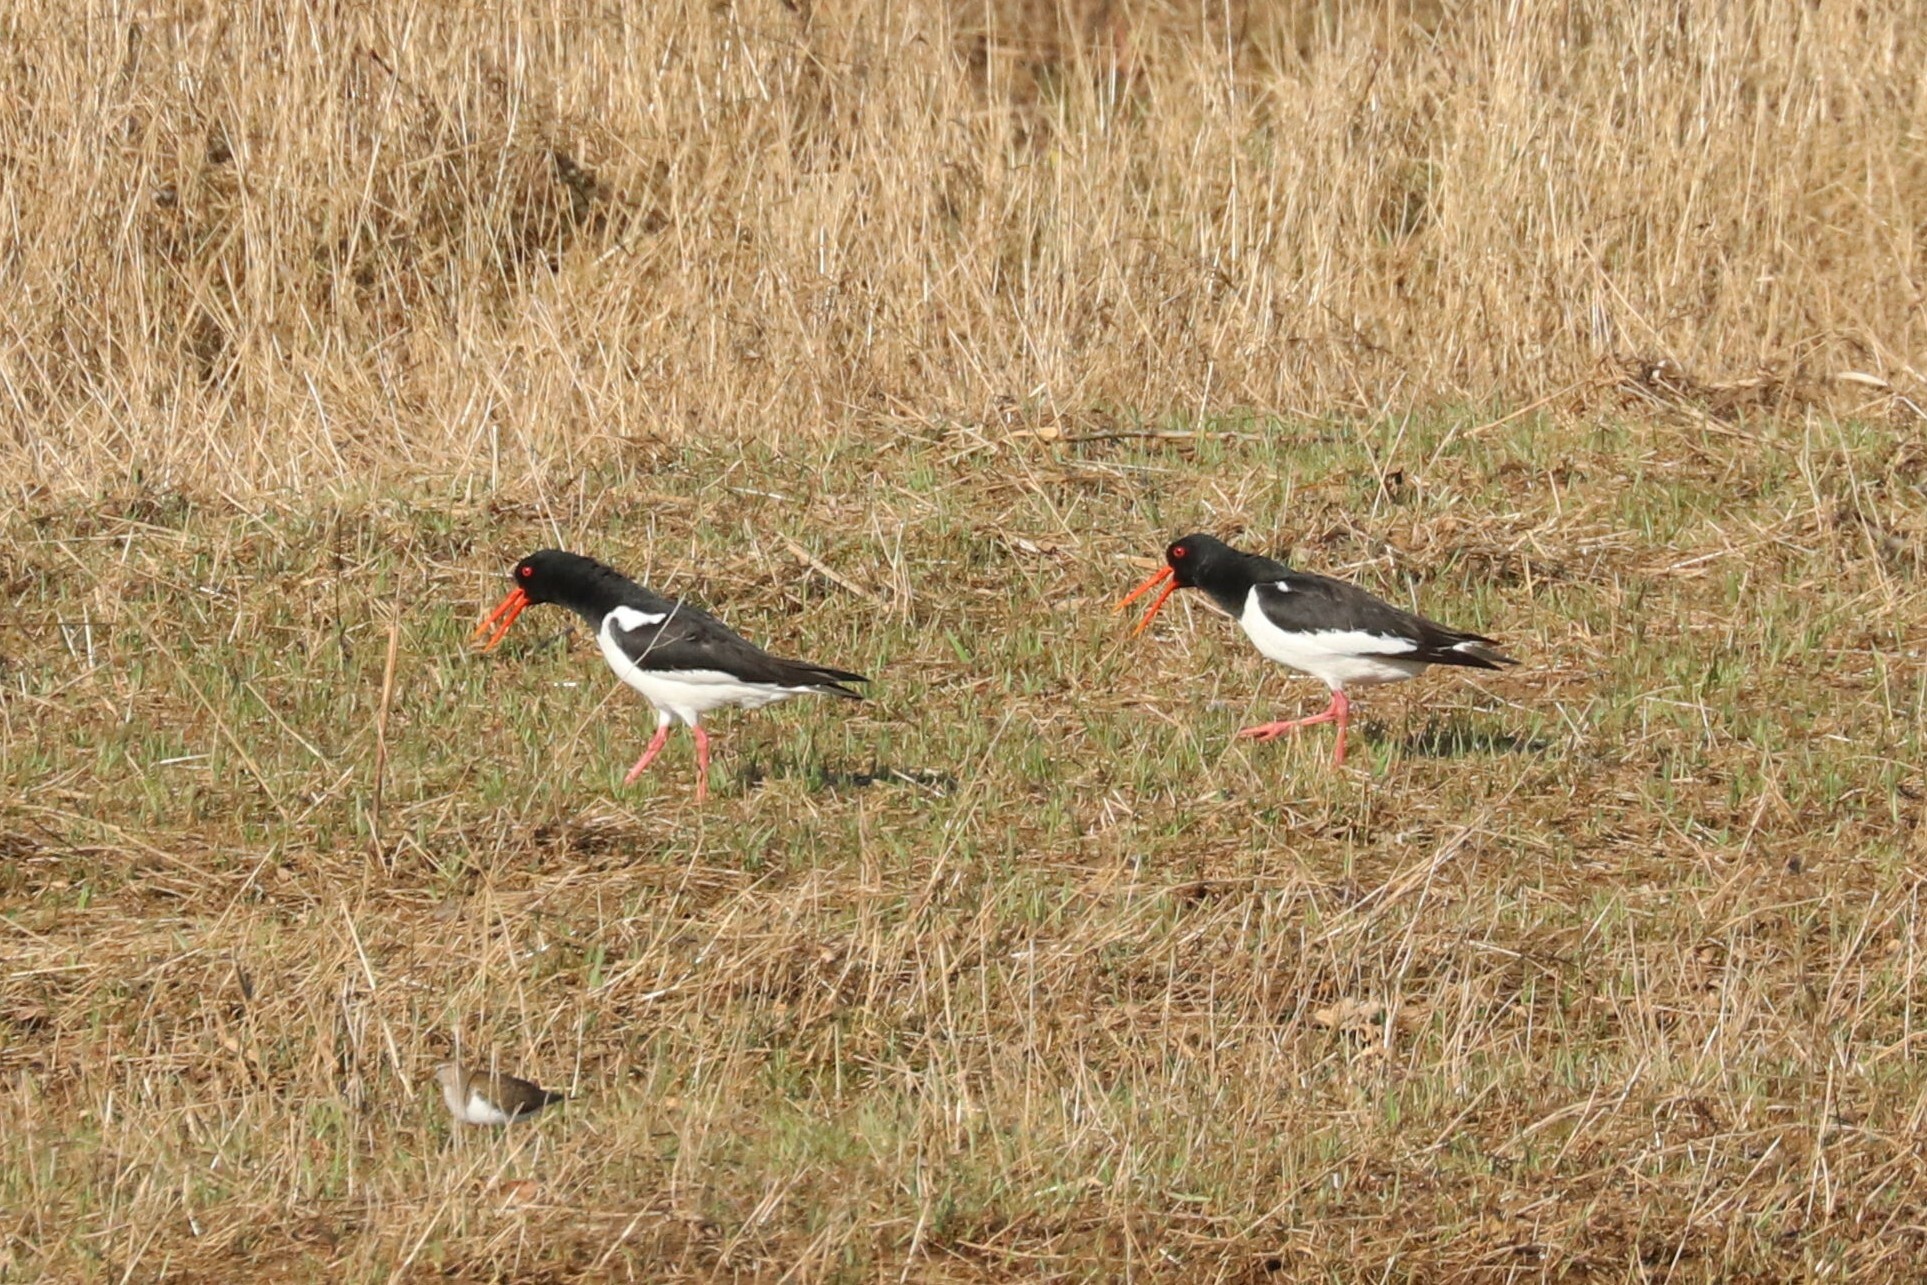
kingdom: Animalia
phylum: Chordata
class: Aves
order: Charadriiformes
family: Haematopodidae
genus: Haematopus
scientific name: Haematopus ostralegus
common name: Eurasian oystercatcher
